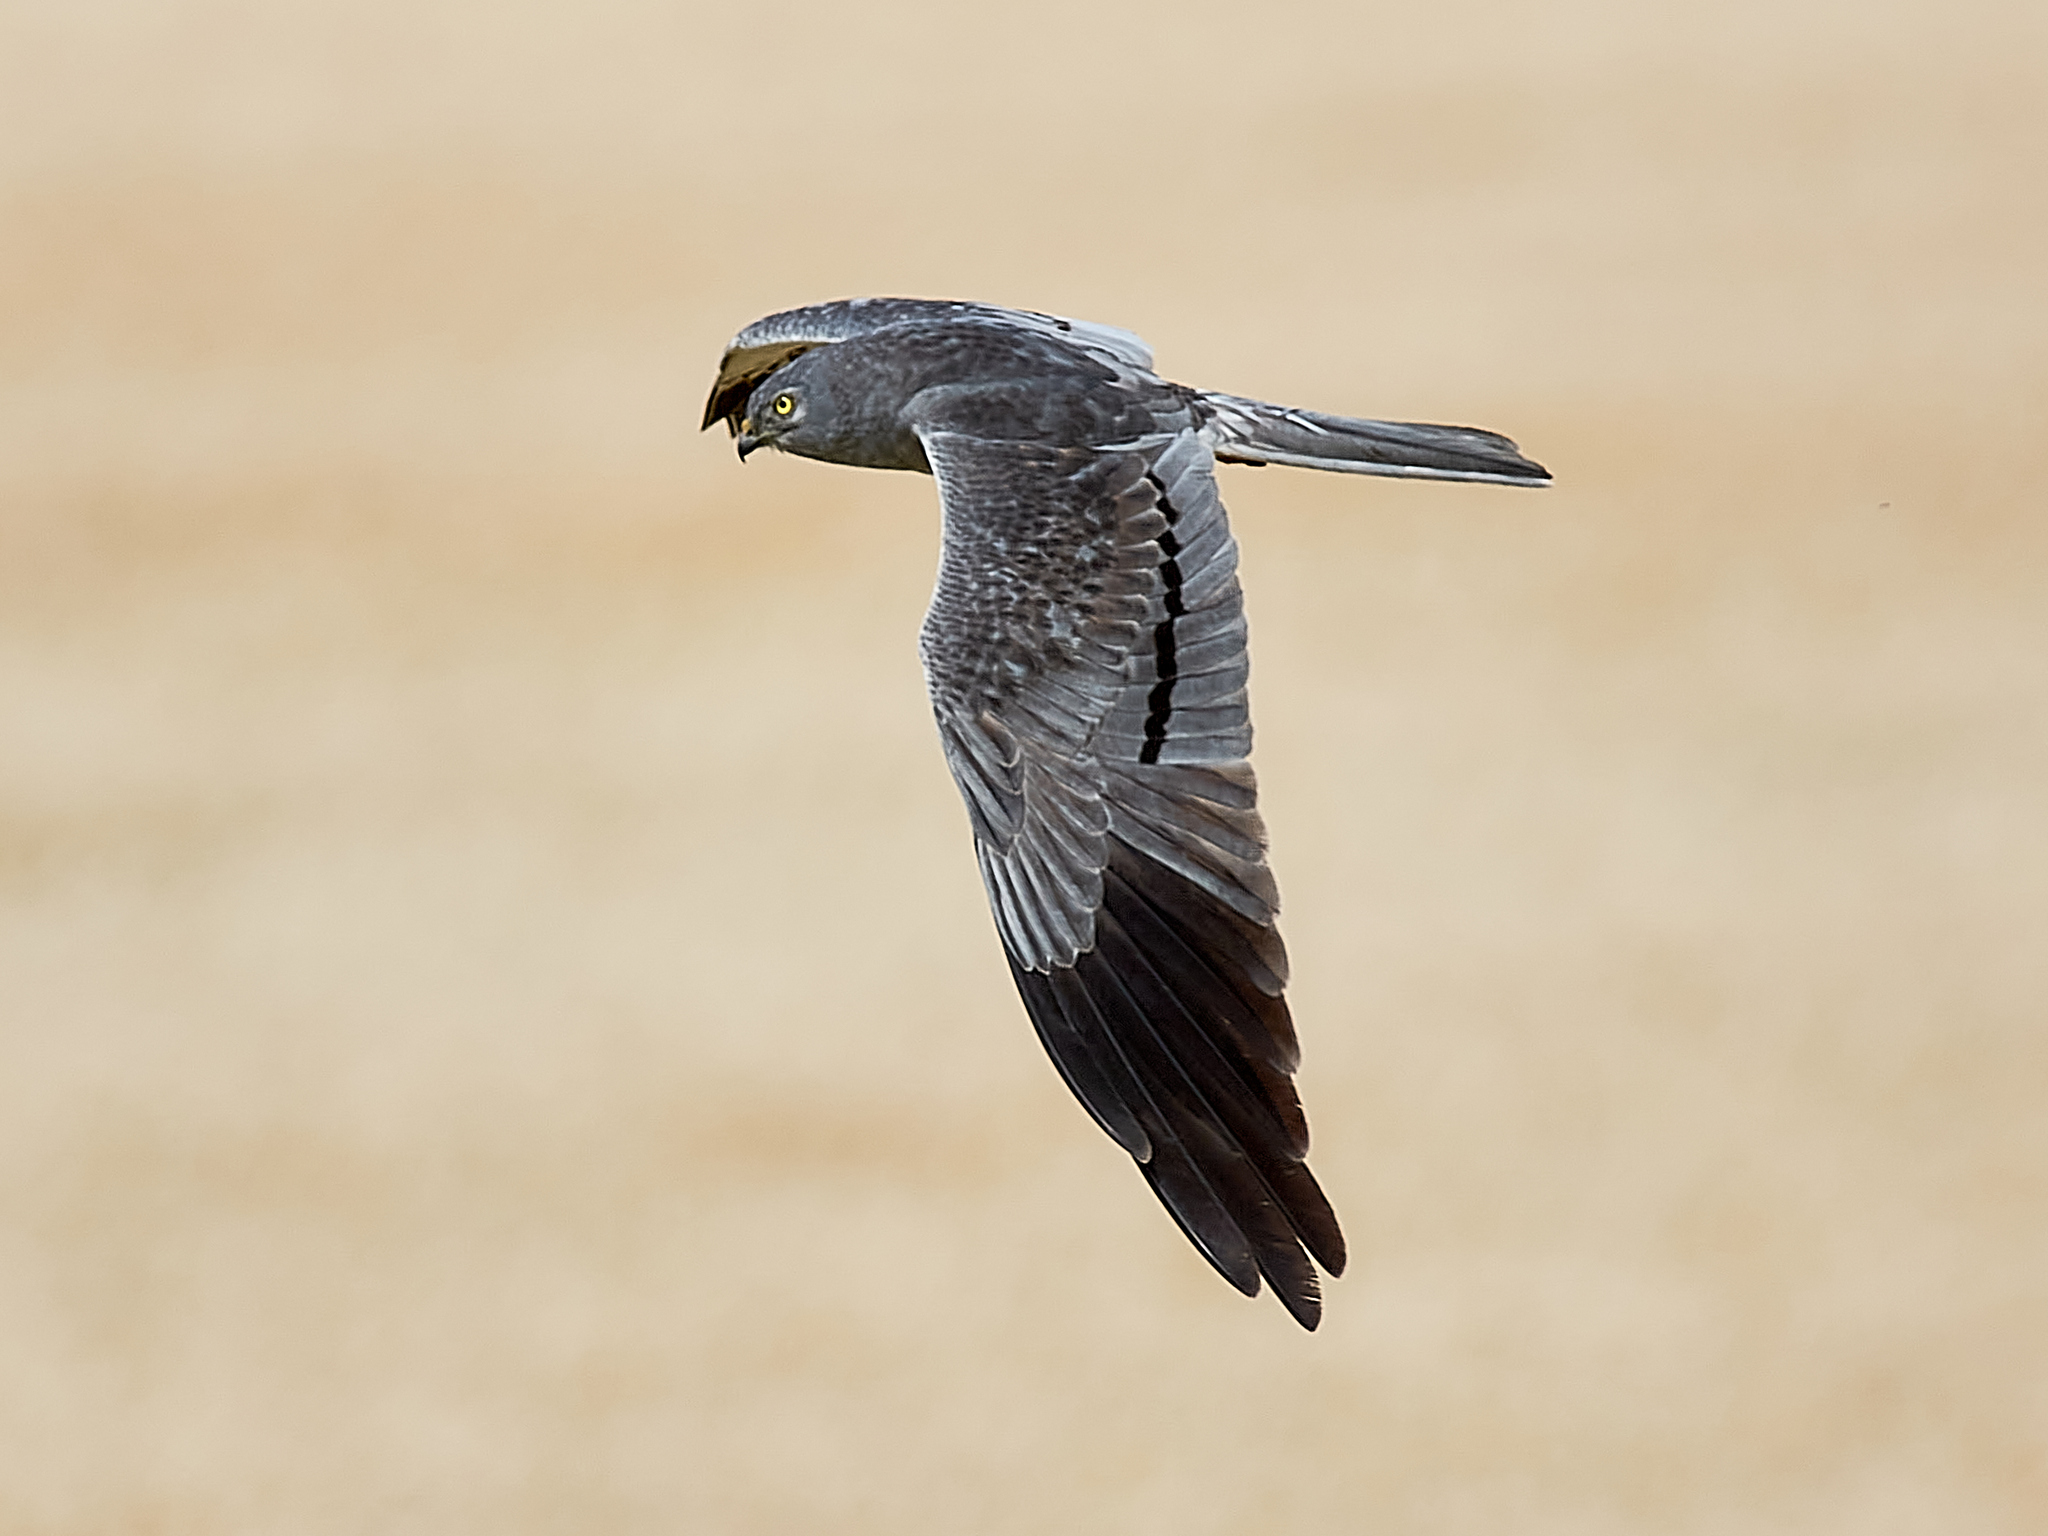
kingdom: Animalia
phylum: Chordata
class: Aves
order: Accipitriformes
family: Accipitridae
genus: Circus
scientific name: Circus pygargus
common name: Montagu's harrier
